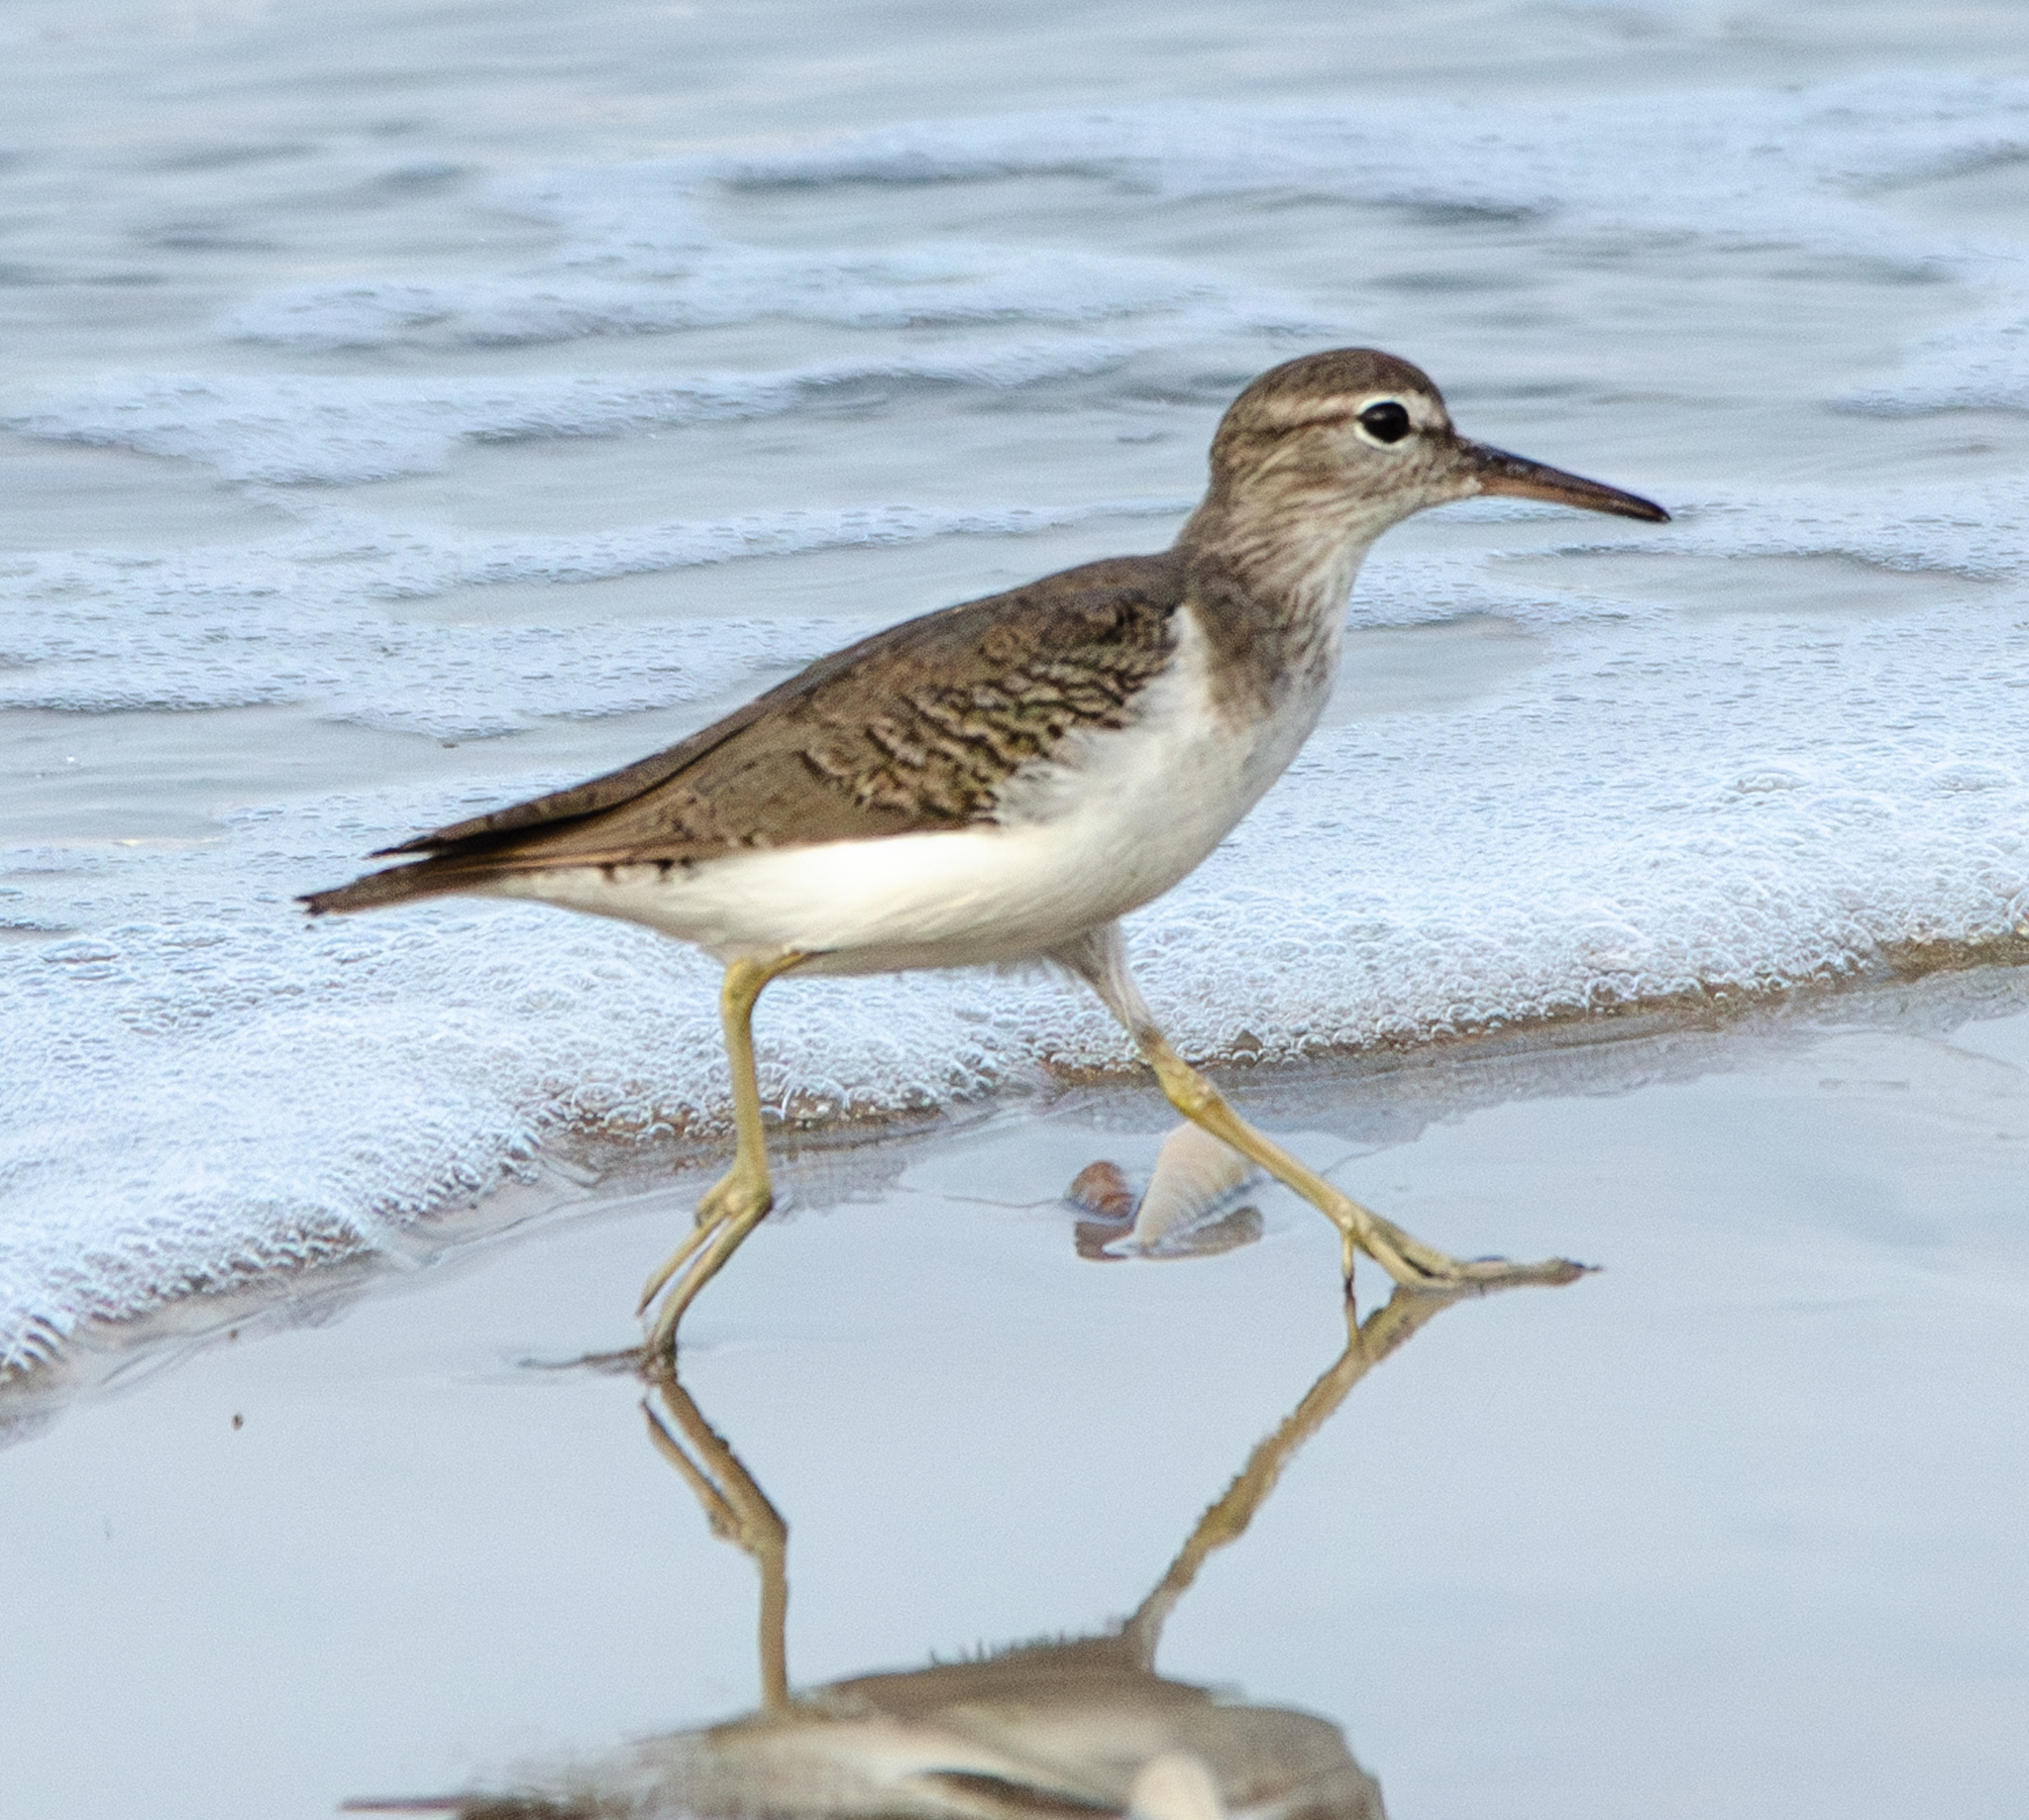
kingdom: Animalia
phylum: Chordata
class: Aves
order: Charadriiformes
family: Scolopacidae
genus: Actitis
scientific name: Actitis macularius
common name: Spotted sandpiper
